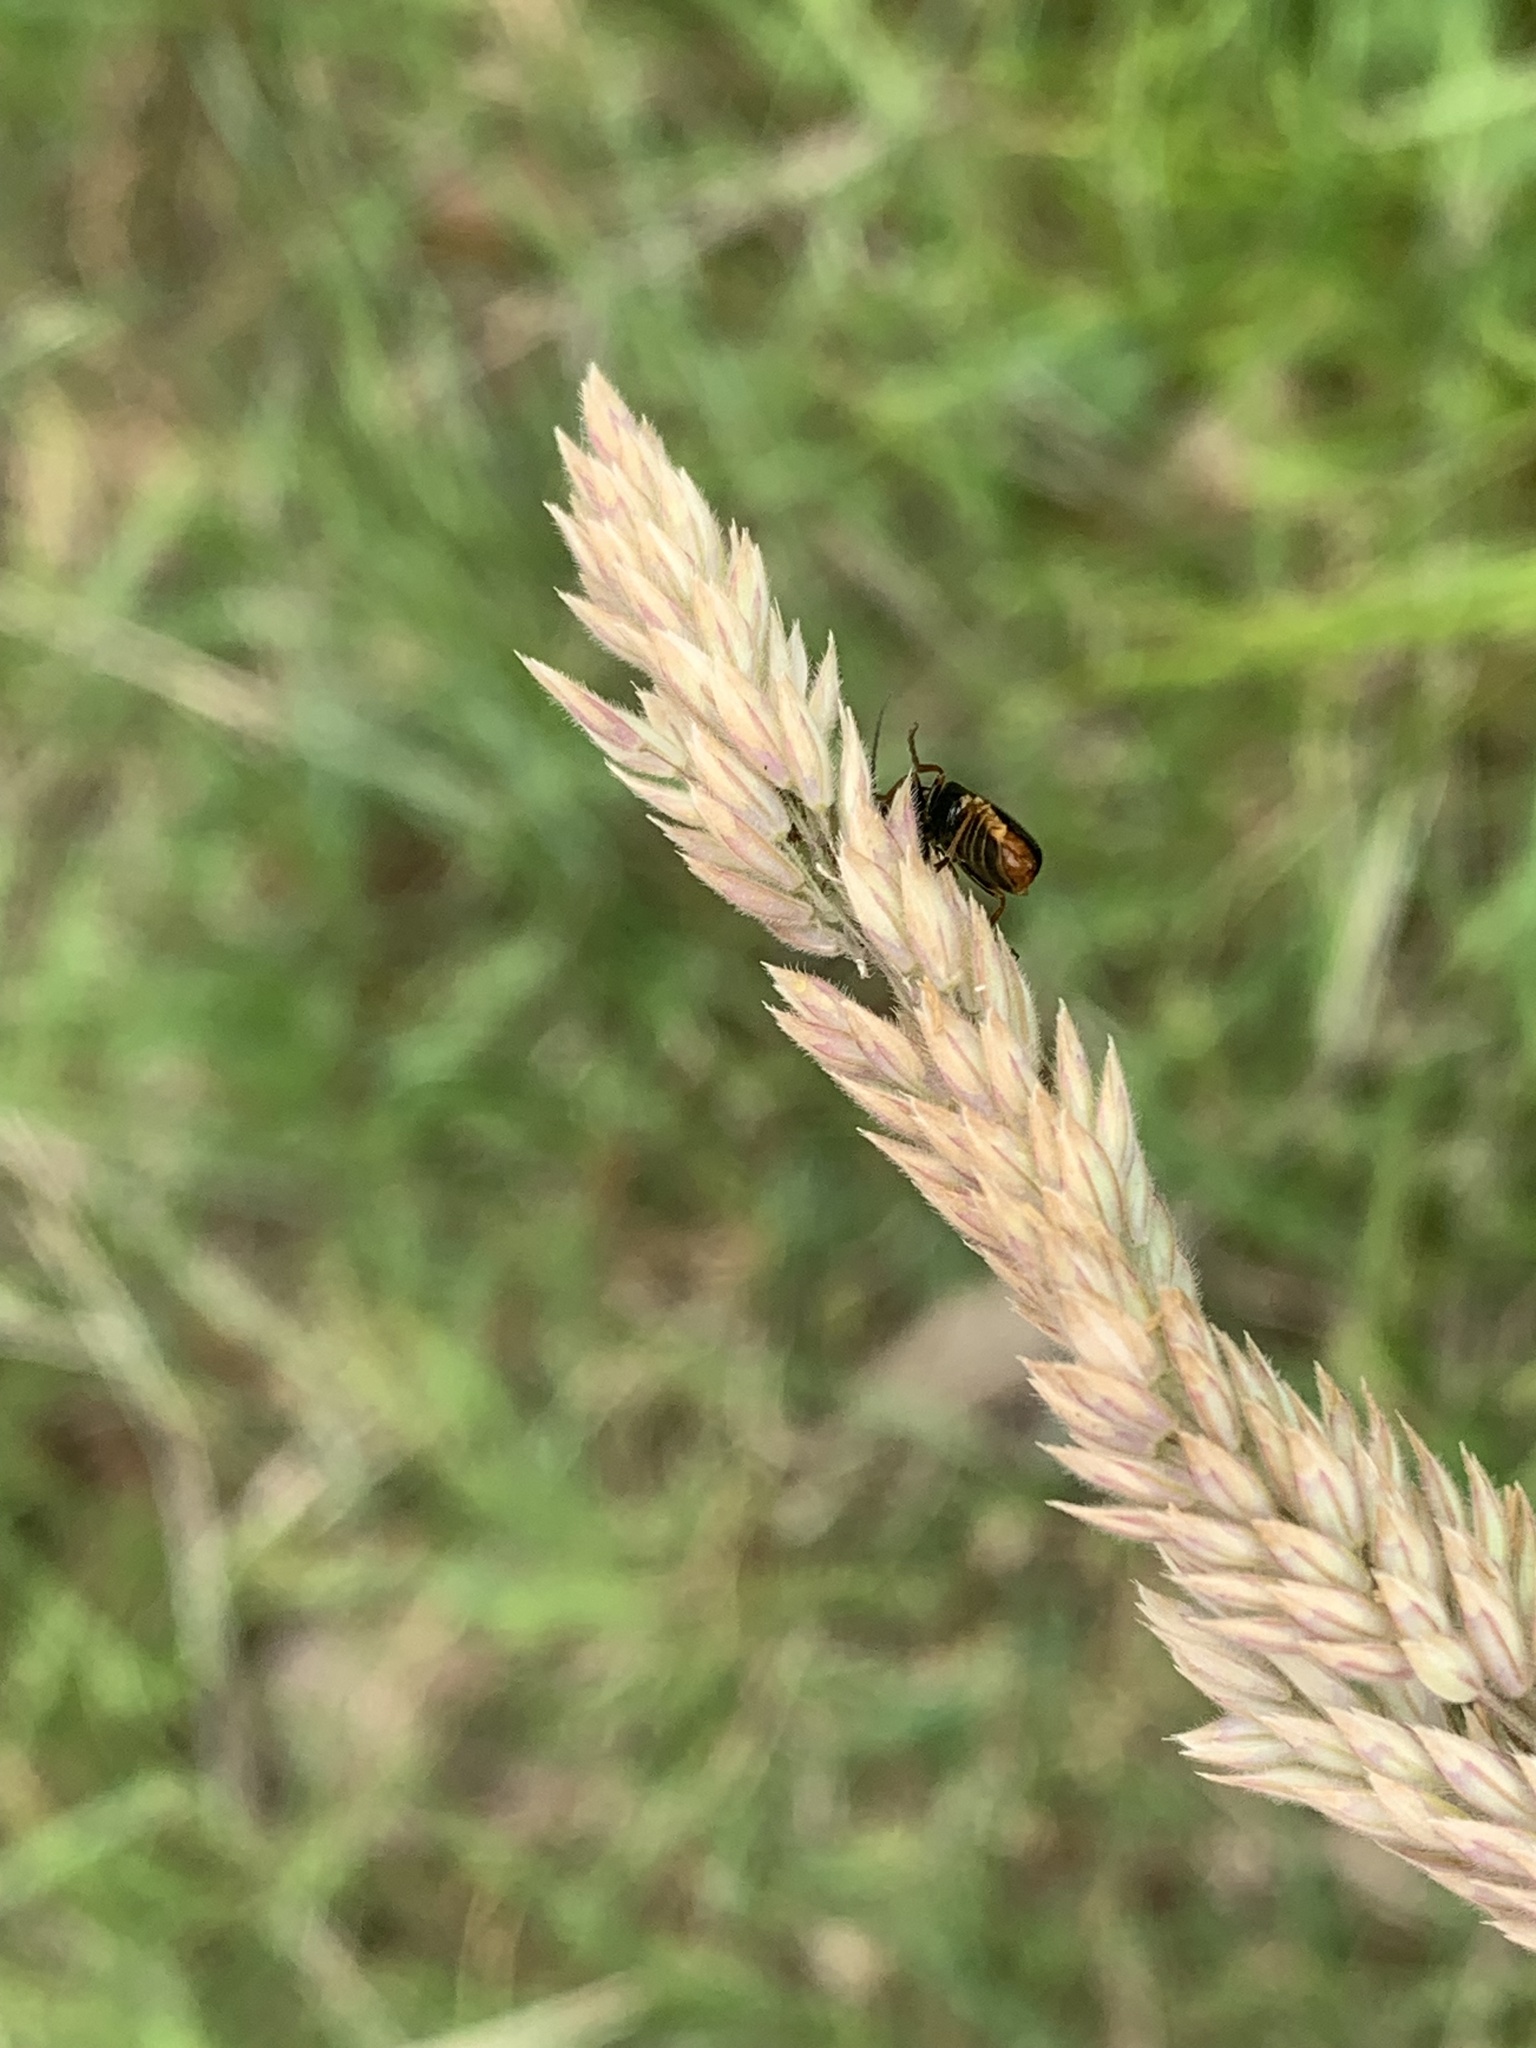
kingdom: Animalia
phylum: Arthropoda
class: Insecta
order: Coleoptera
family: Cantharidae
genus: Cantharis
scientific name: Cantharis flavilabris
